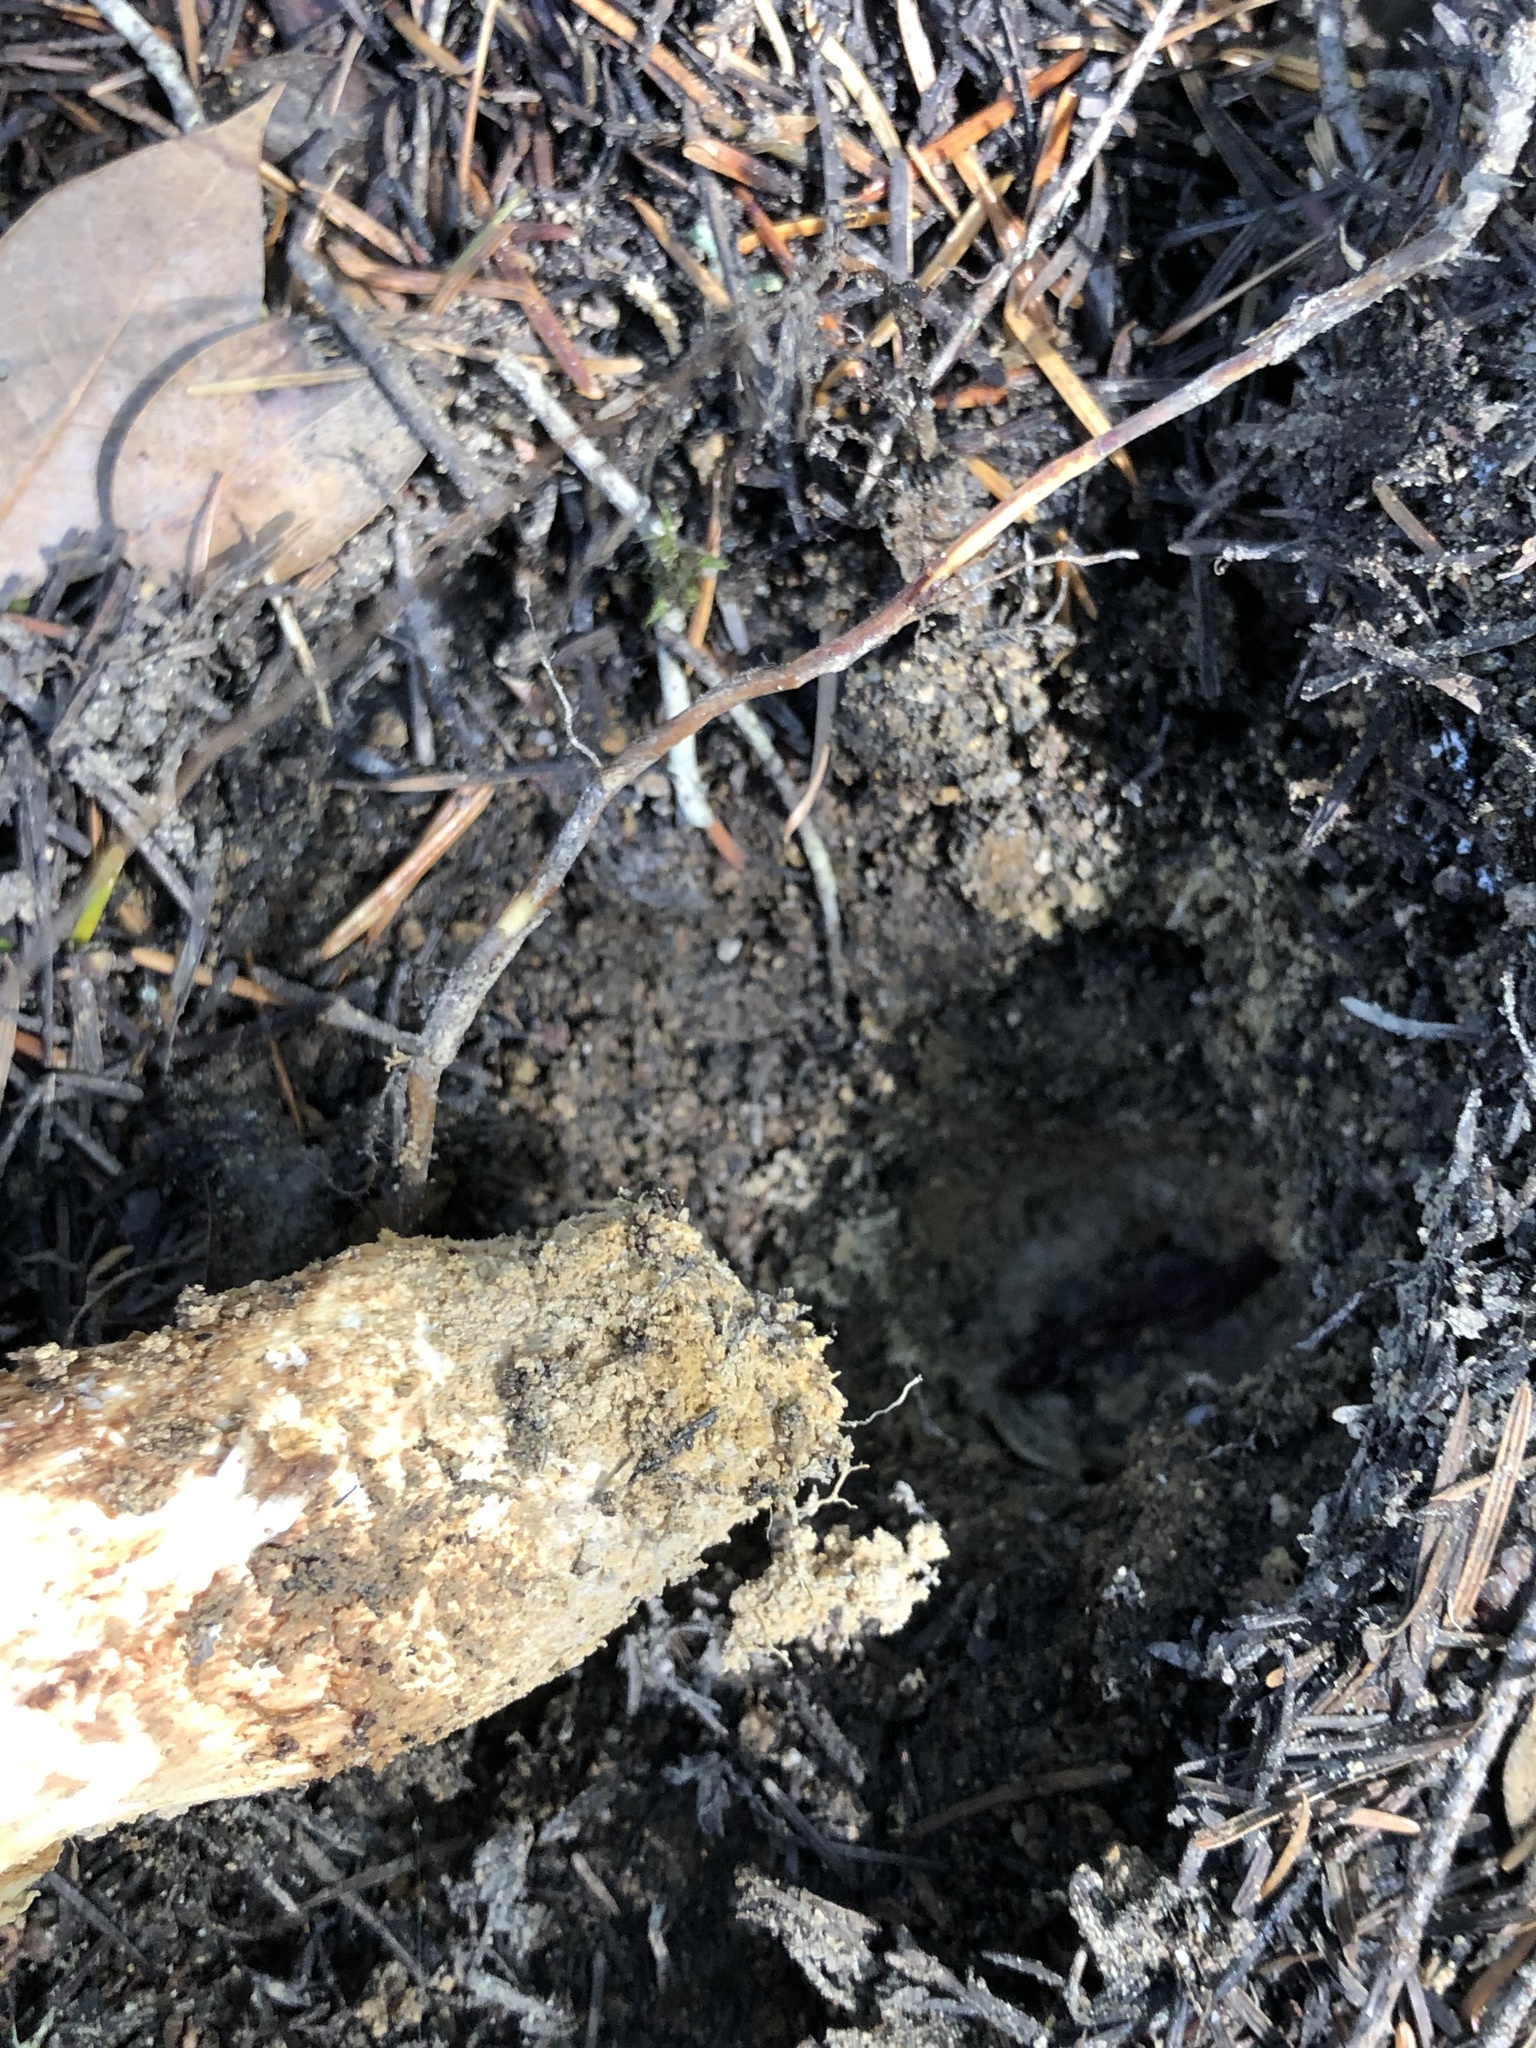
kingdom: Fungi
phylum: Basidiomycota
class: Agaricomycetes
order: Agaricales
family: Tricholomataceae
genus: Tricholoma
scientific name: Tricholoma murrillianum
